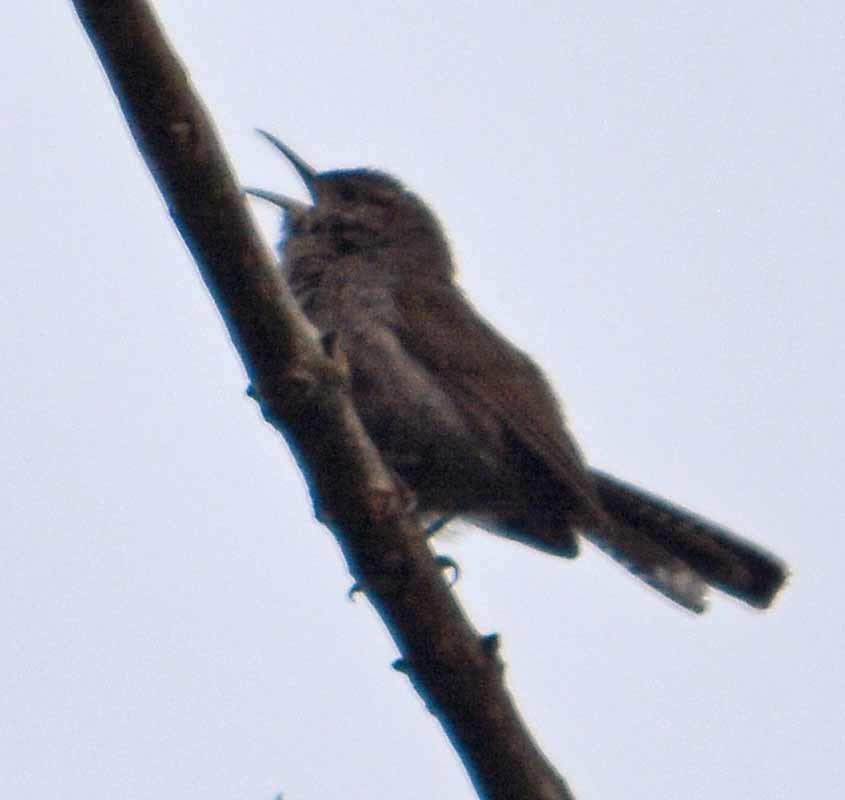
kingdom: Animalia
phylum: Chordata
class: Aves
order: Passeriformes
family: Troglodytidae
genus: Thryomanes
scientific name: Thryomanes bewickii
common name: Bewick's wren
